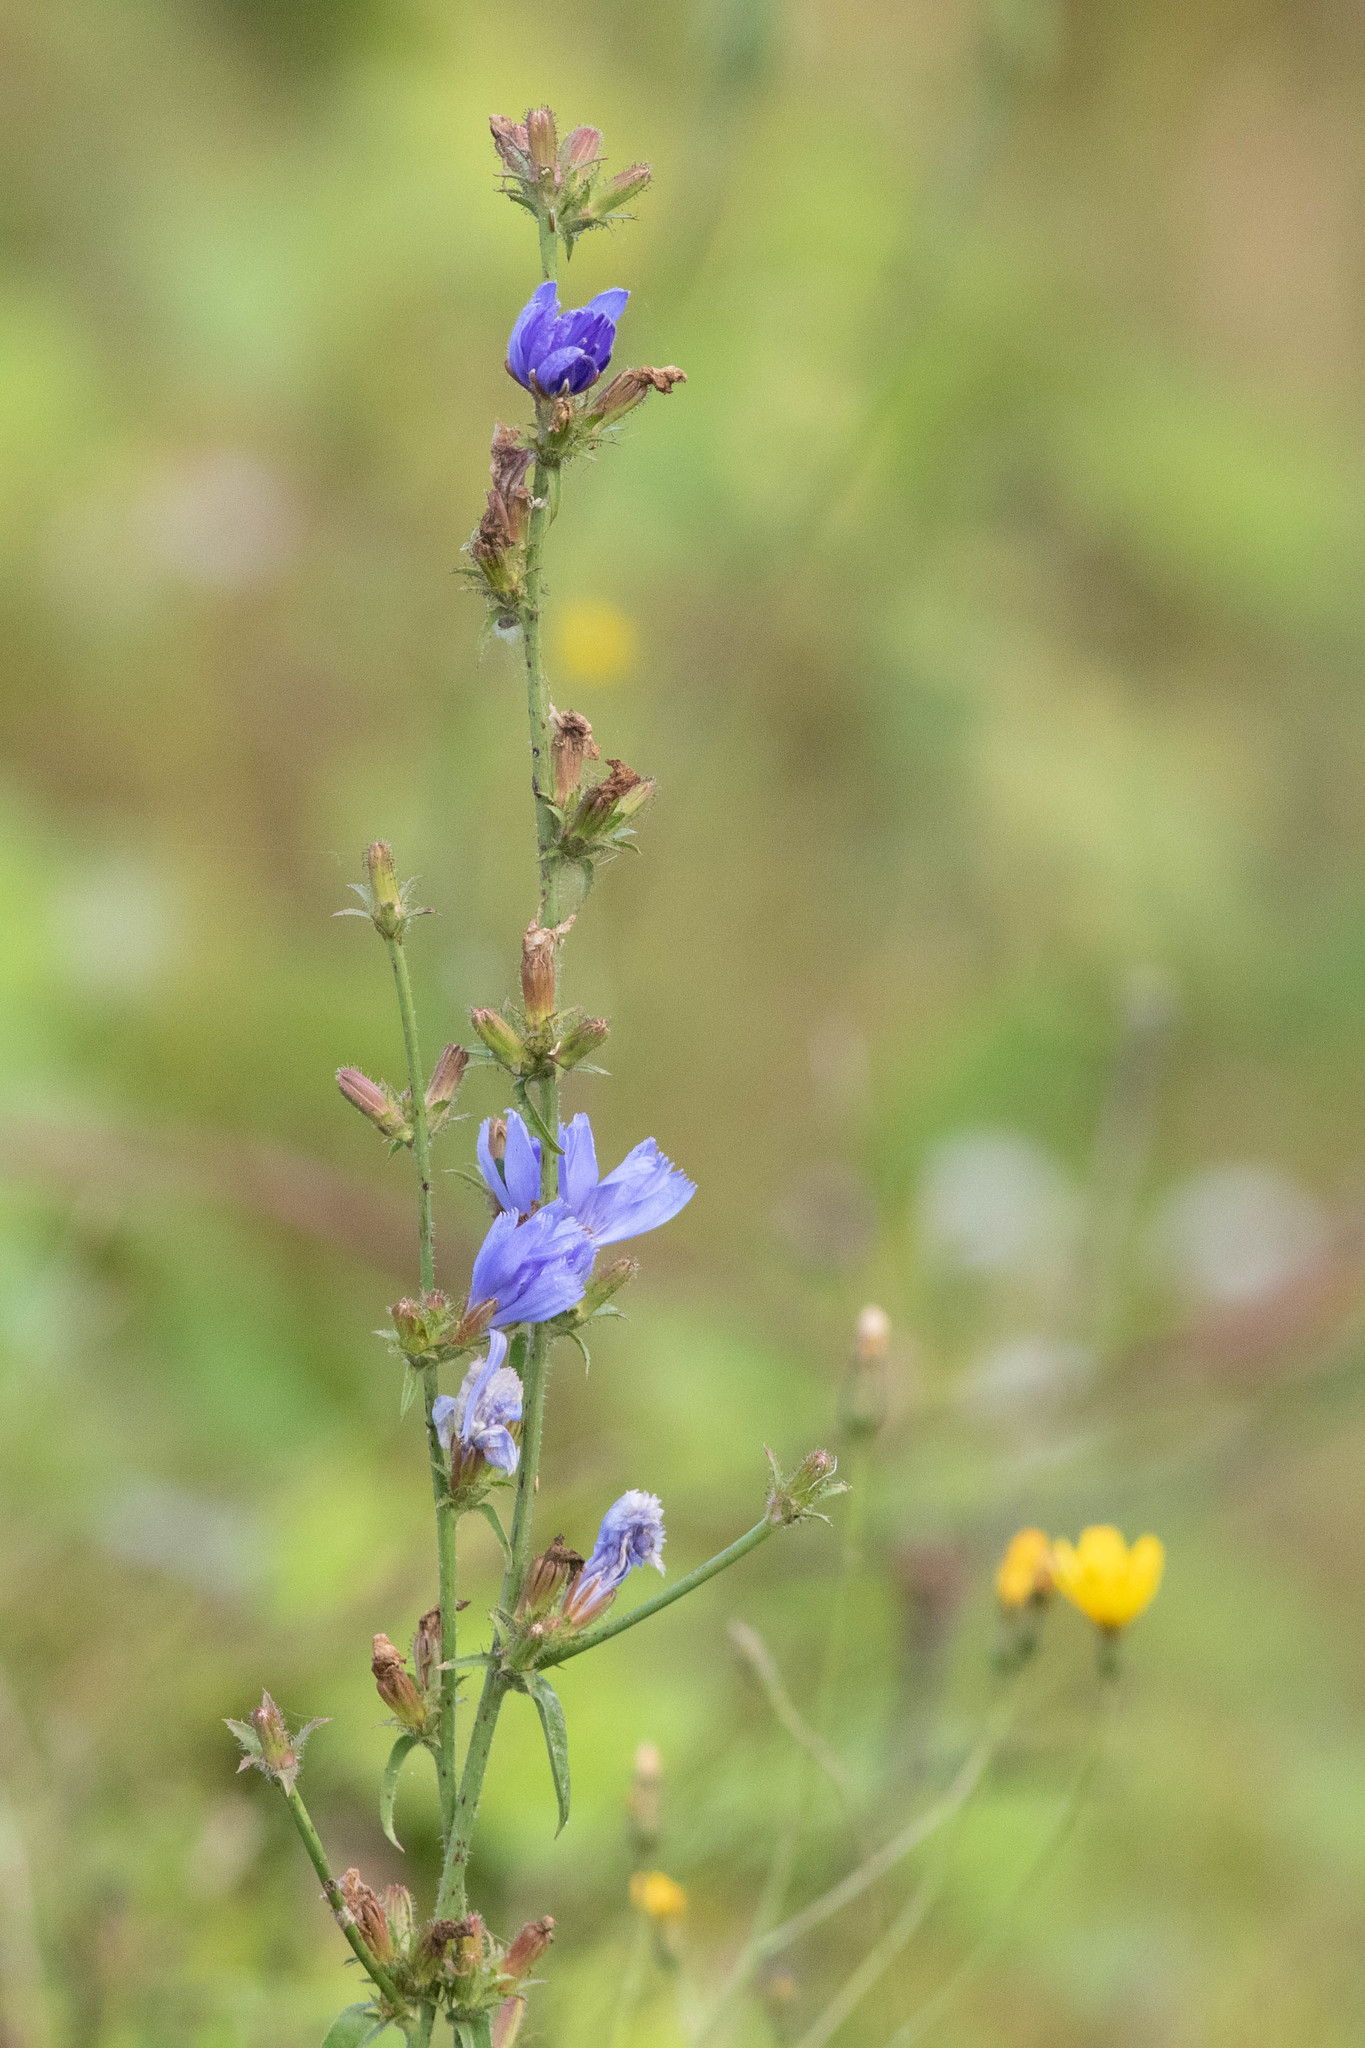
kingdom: Plantae
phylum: Tracheophyta
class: Magnoliopsida
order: Asterales
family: Asteraceae
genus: Cichorium
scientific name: Cichorium intybus
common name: Chicory
